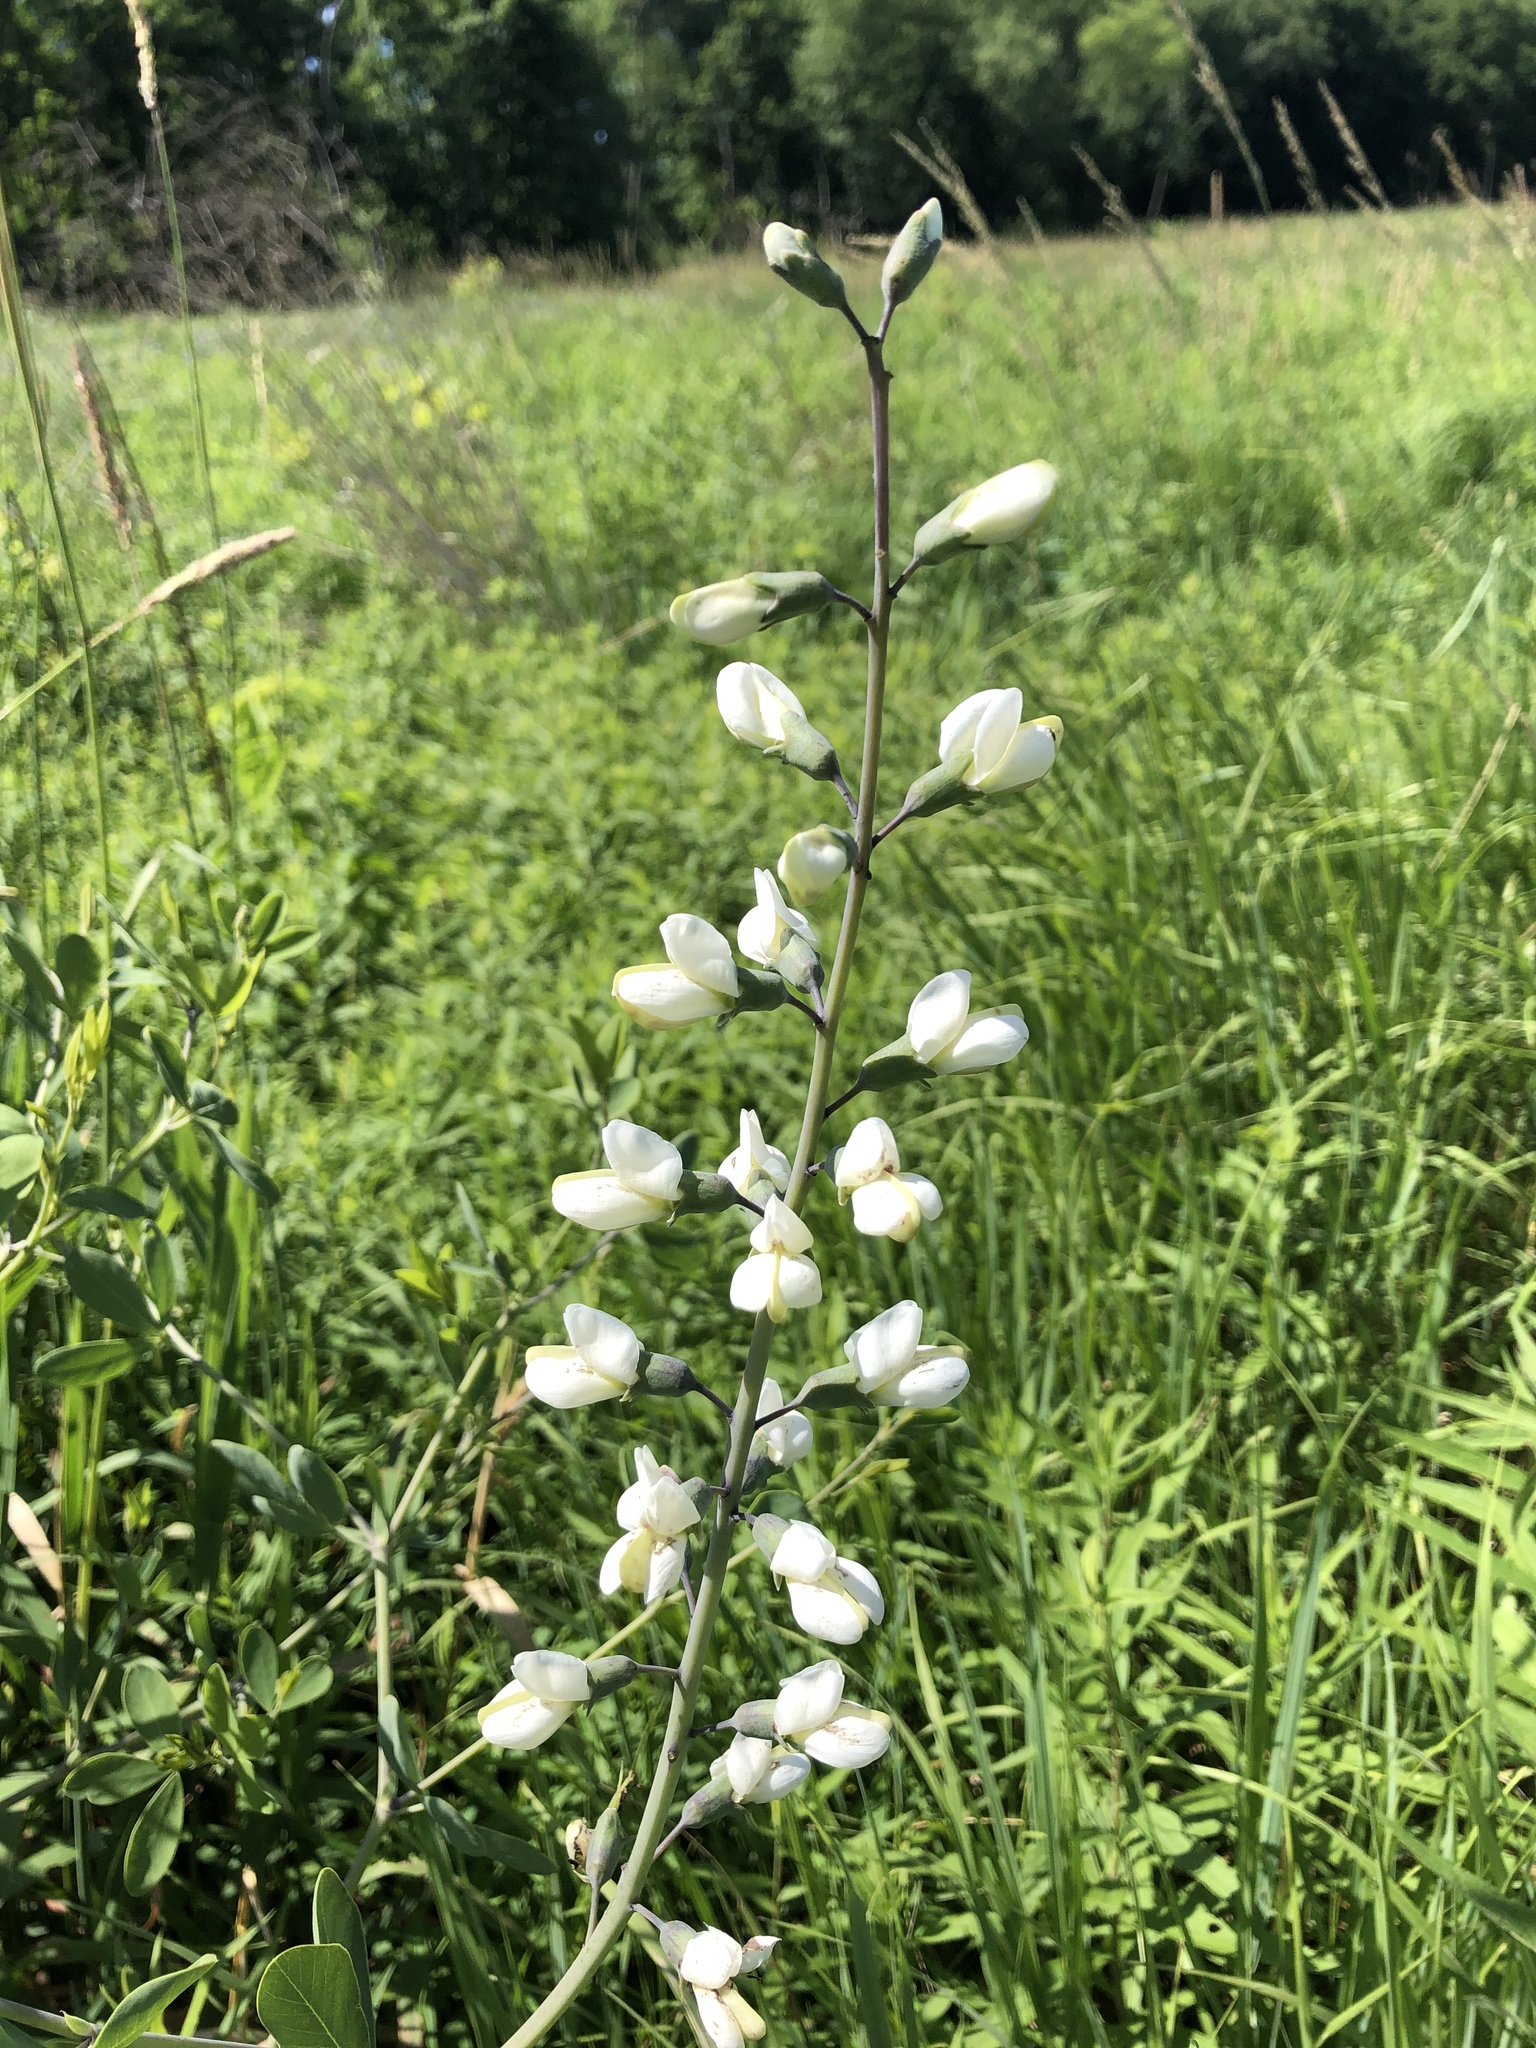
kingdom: Plantae
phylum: Tracheophyta
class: Magnoliopsida
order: Fabales
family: Fabaceae
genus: Baptisia
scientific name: Baptisia alba
